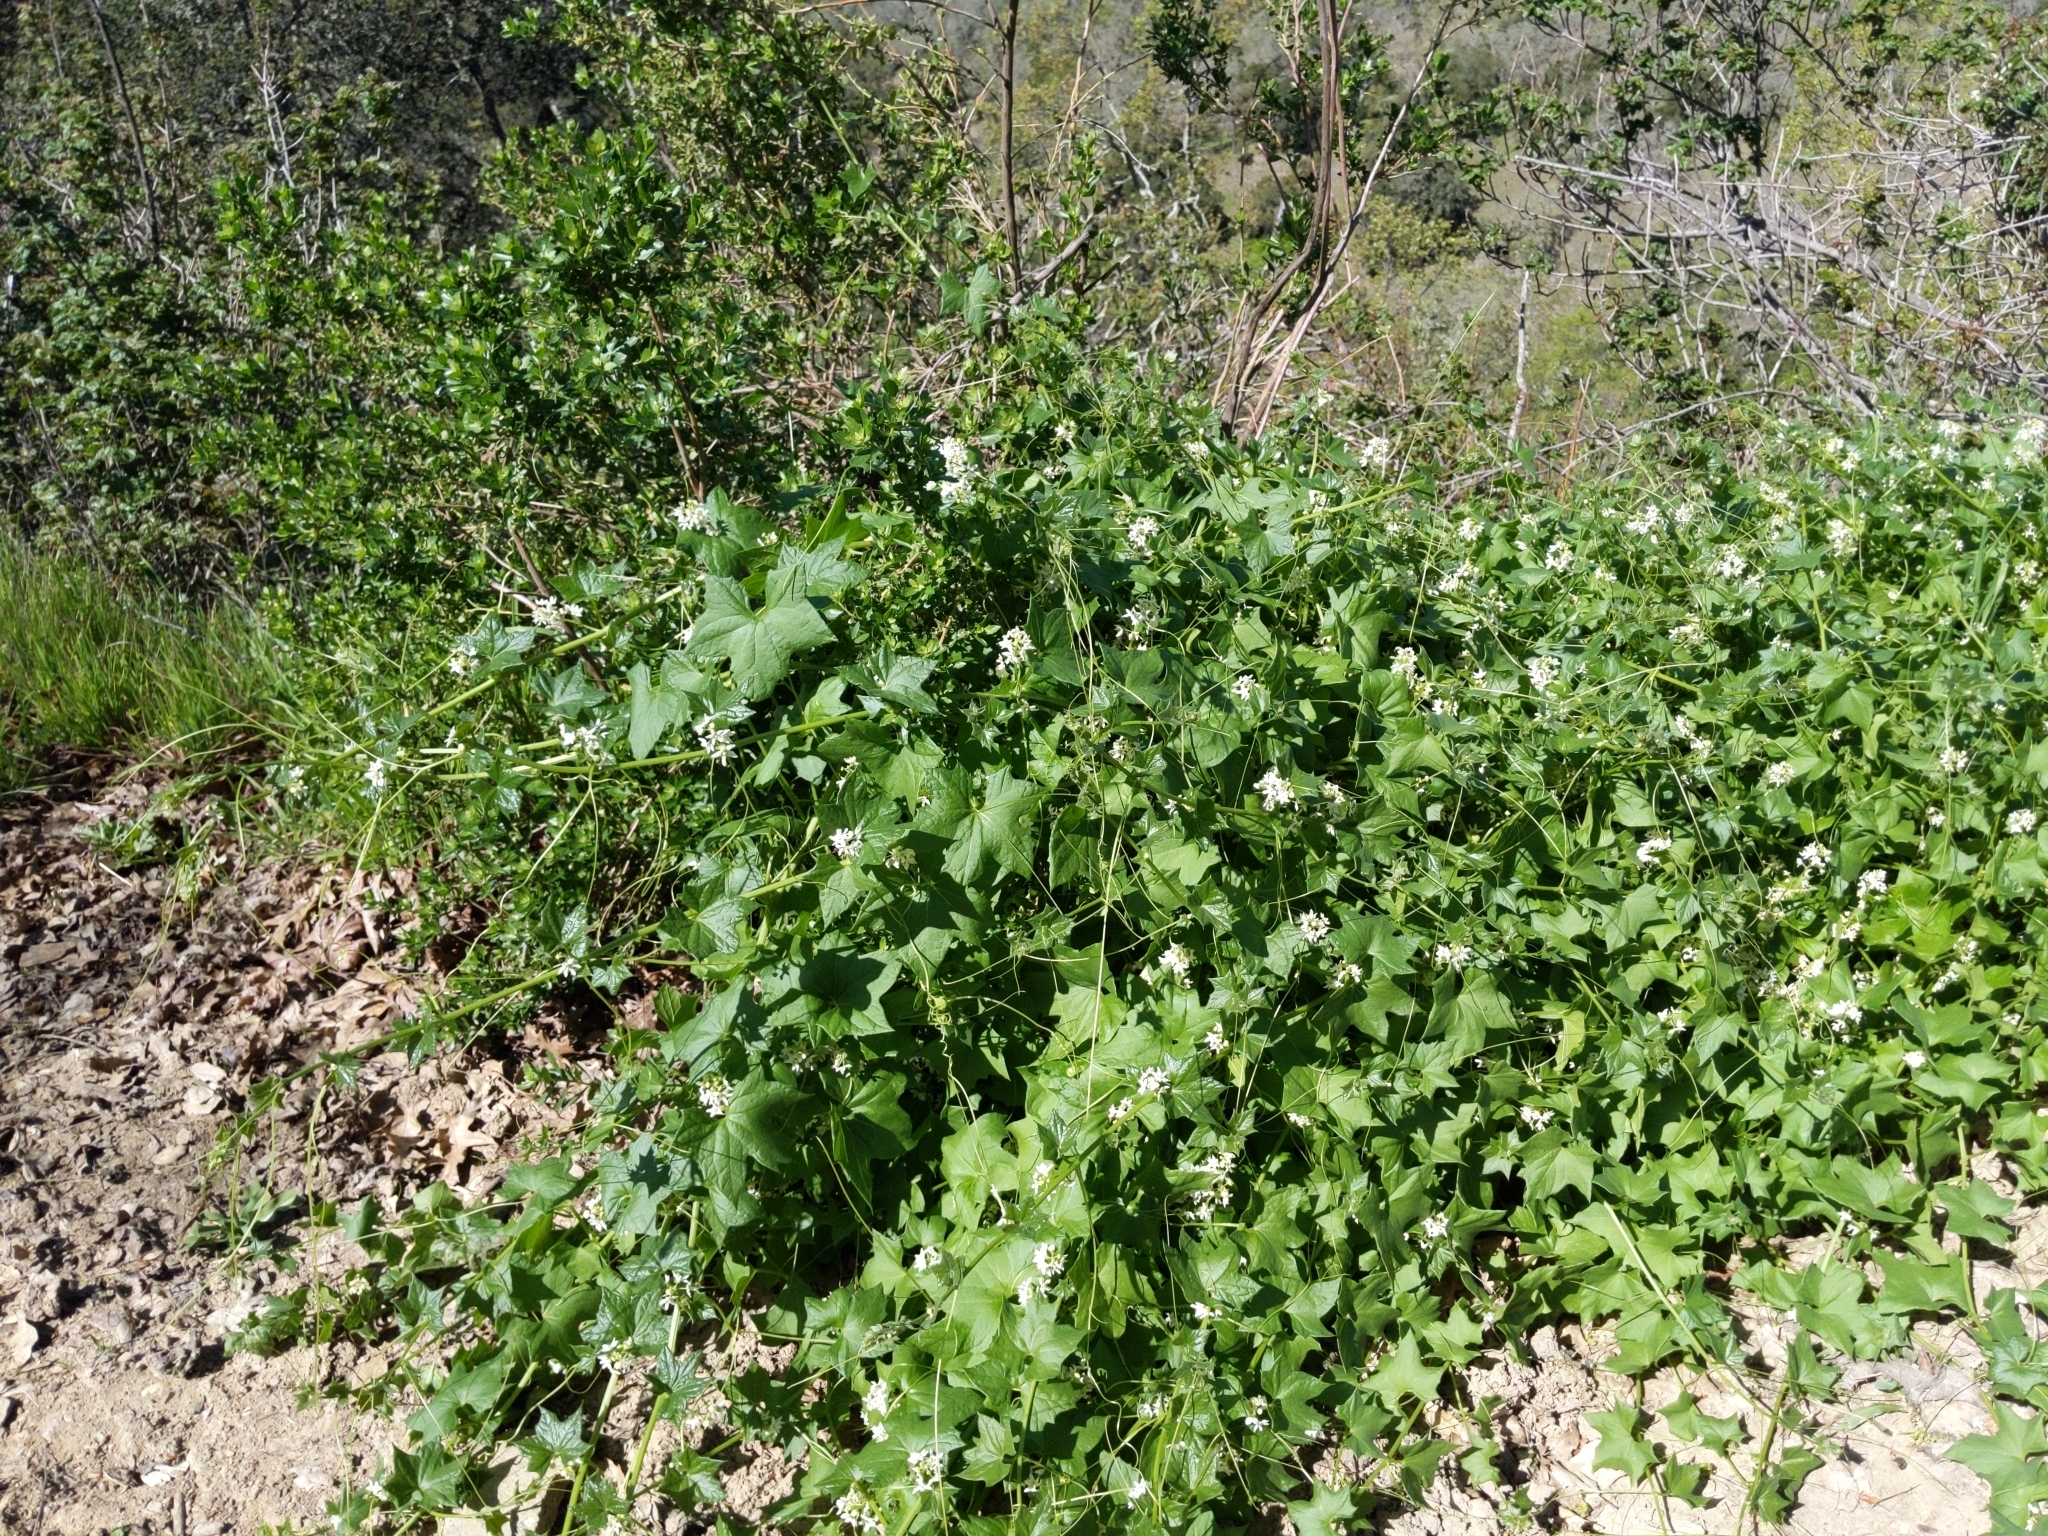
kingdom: Plantae
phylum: Tracheophyta
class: Magnoliopsida
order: Cucurbitales
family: Cucurbitaceae
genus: Marah
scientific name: Marah fabacea
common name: California manroot
